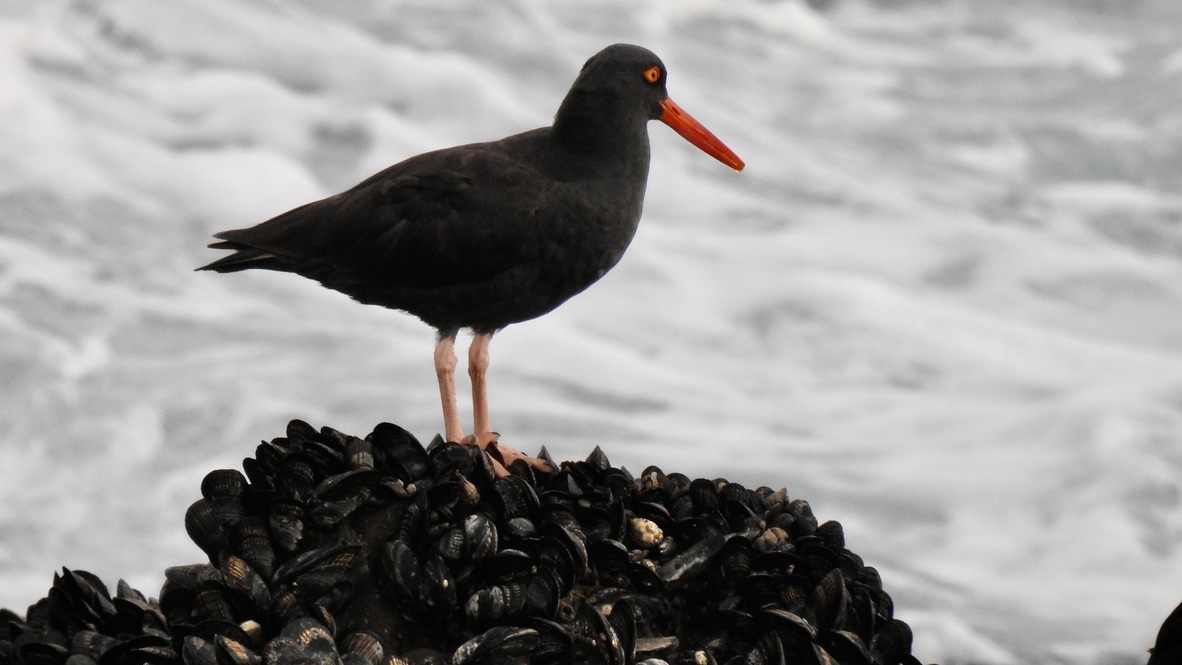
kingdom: Animalia
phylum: Chordata
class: Aves
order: Charadriiformes
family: Haematopodidae
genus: Haematopus
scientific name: Haematopus bachmani
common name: Black oystercatcher
